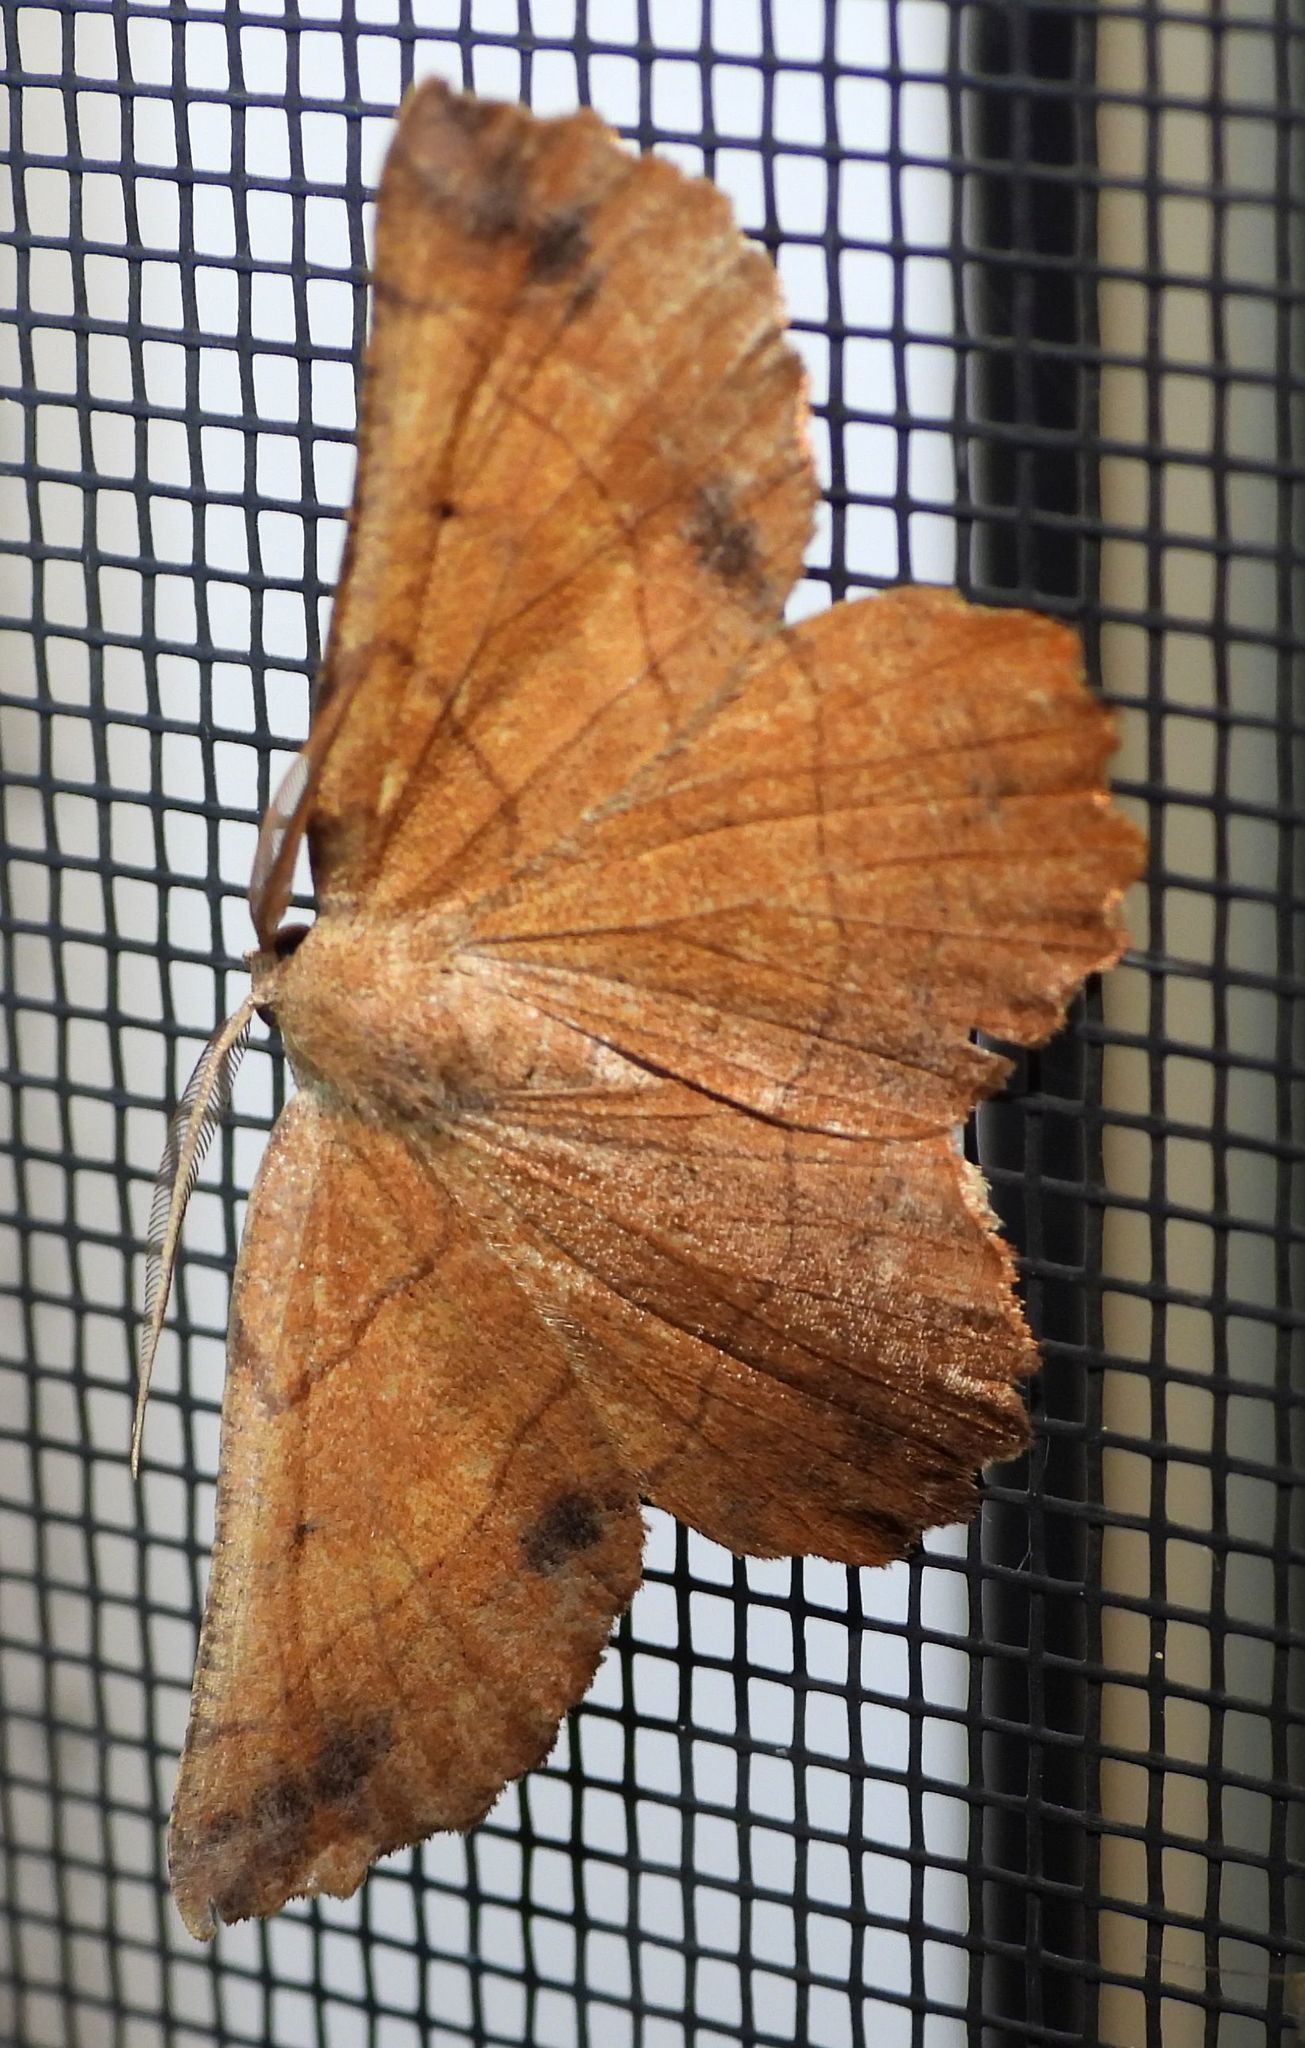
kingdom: Animalia
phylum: Arthropoda
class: Insecta
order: Lepidoptera
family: Geometridae
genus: Euchlaena
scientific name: Euchlaena johnsonaria
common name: Johnson's euchlaena
